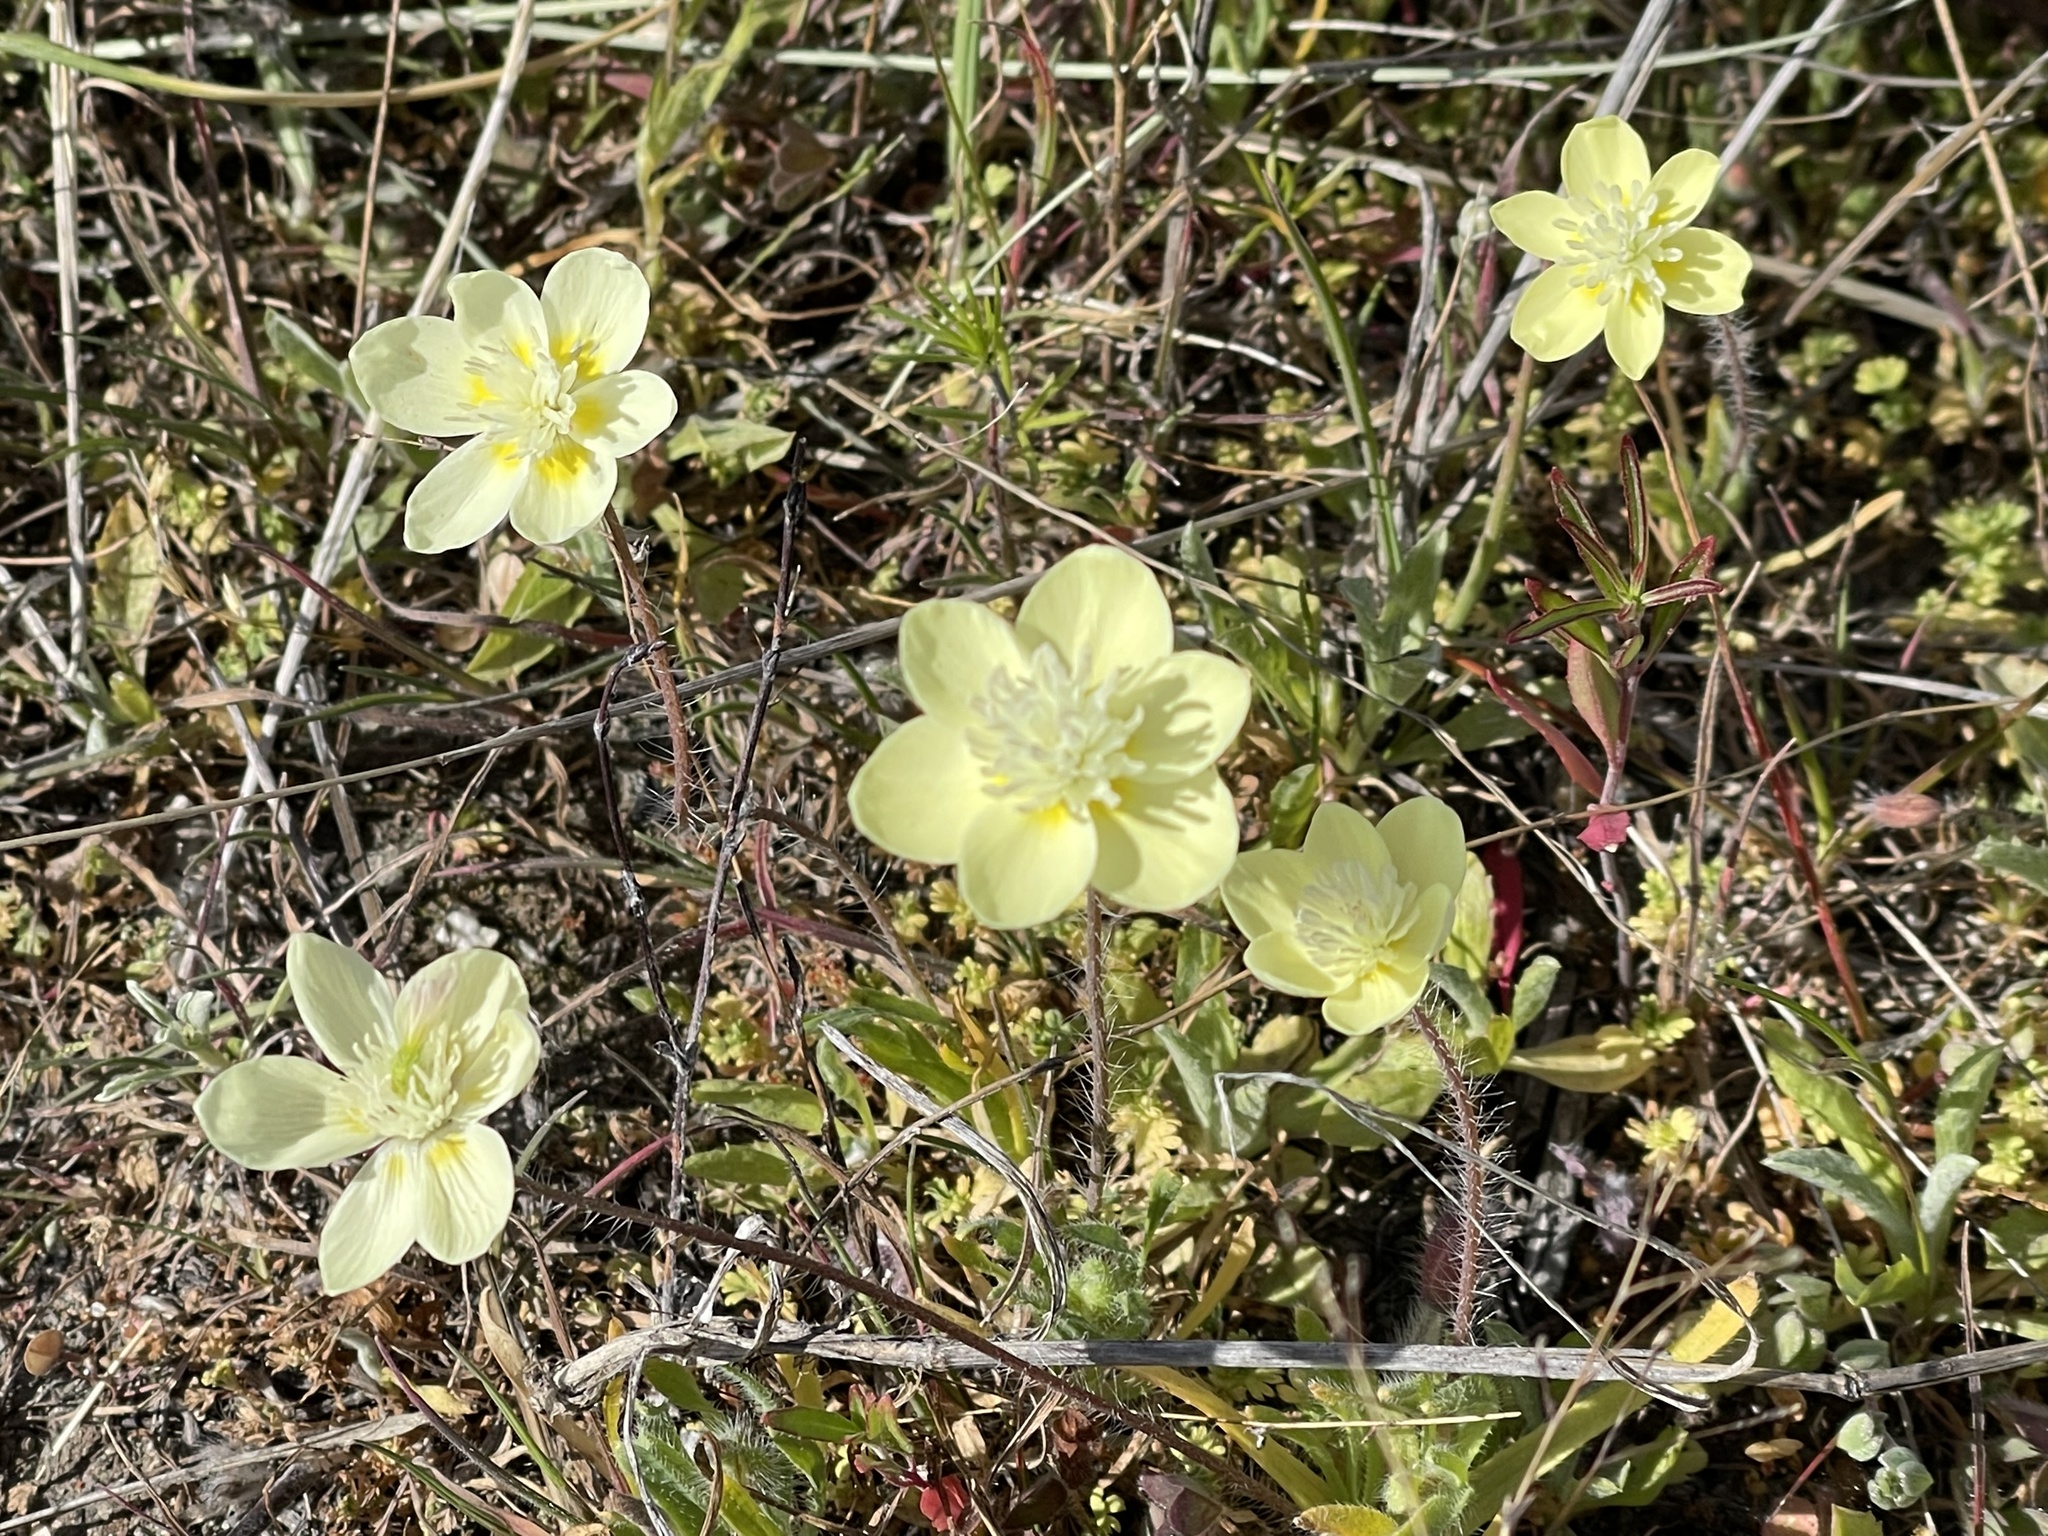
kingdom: Plantae
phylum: Tracheophyta
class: Magnoliopsida
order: Ranunculales
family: Papaveraceae
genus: Platystemon
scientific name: Platystemon californicus
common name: Cream-cups
